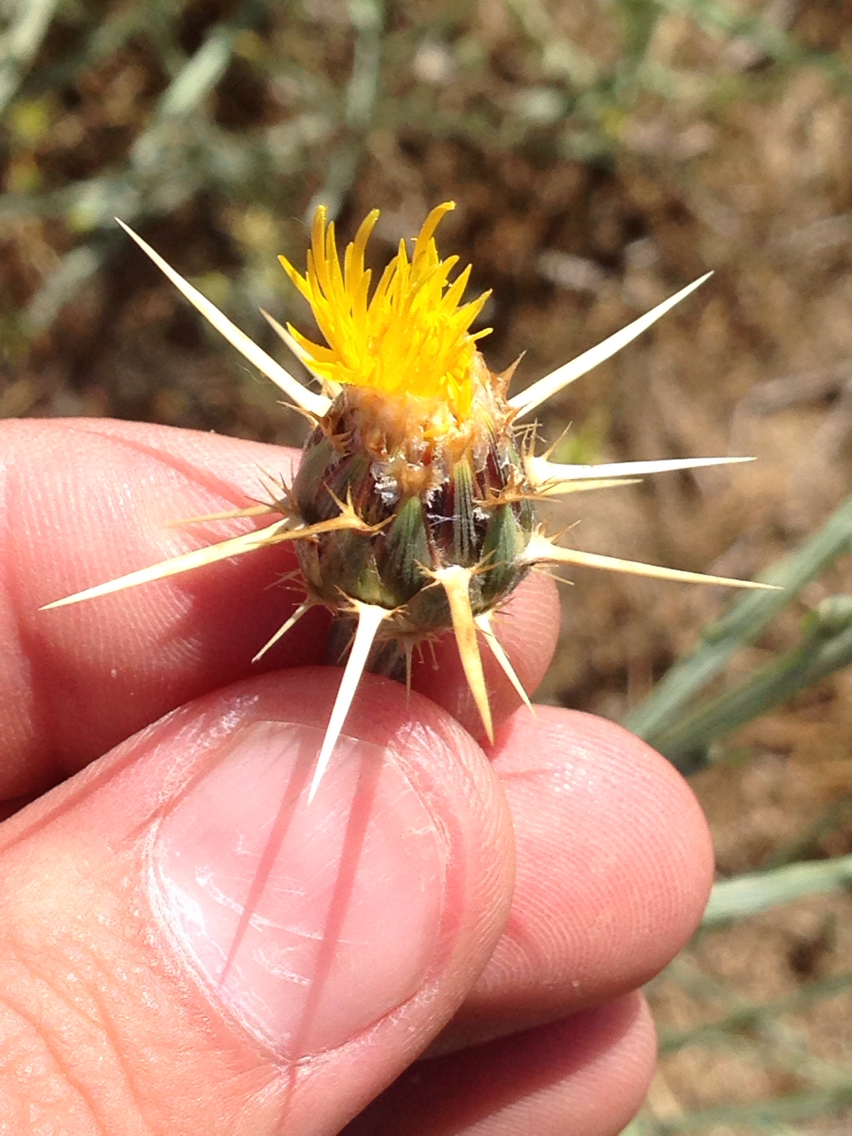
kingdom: Plantae
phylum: Tracheophyta
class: Magnoliopsida
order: Asterales
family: Asteraceae
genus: Centaurea
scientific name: Centaurea solstitialis
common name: Yellow star-thistle
